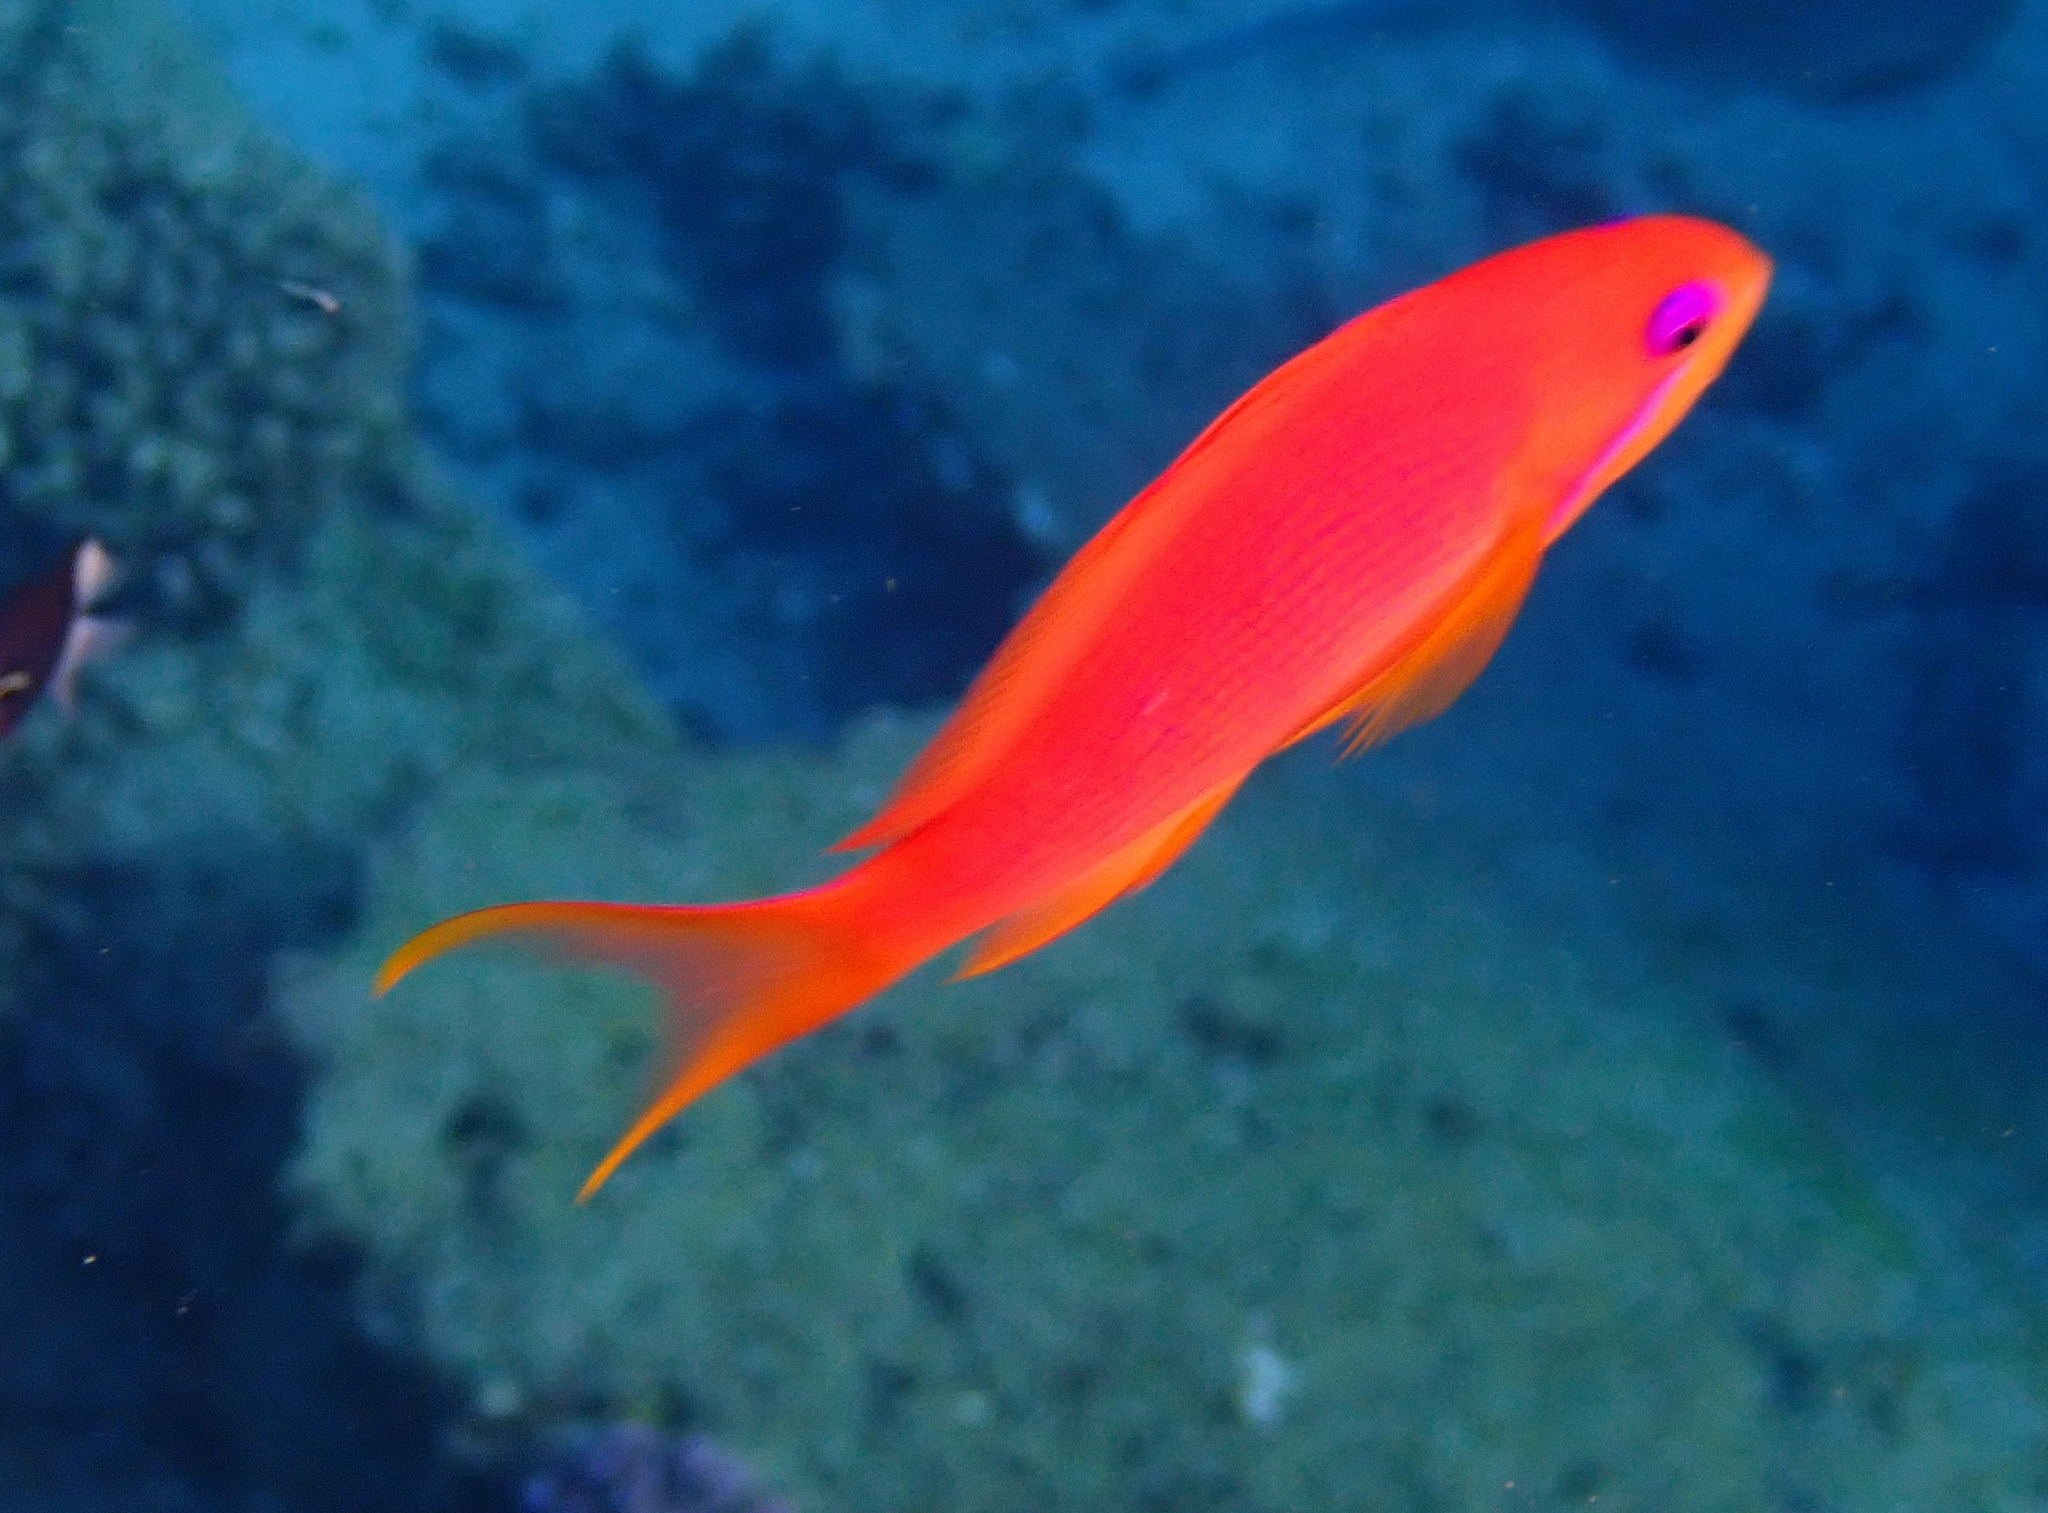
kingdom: Animalia
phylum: Chordata
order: Perciformes
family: Serranidae
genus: Pseudanthias
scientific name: Pseudanthias squamipinnis
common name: Scalefin anthias
